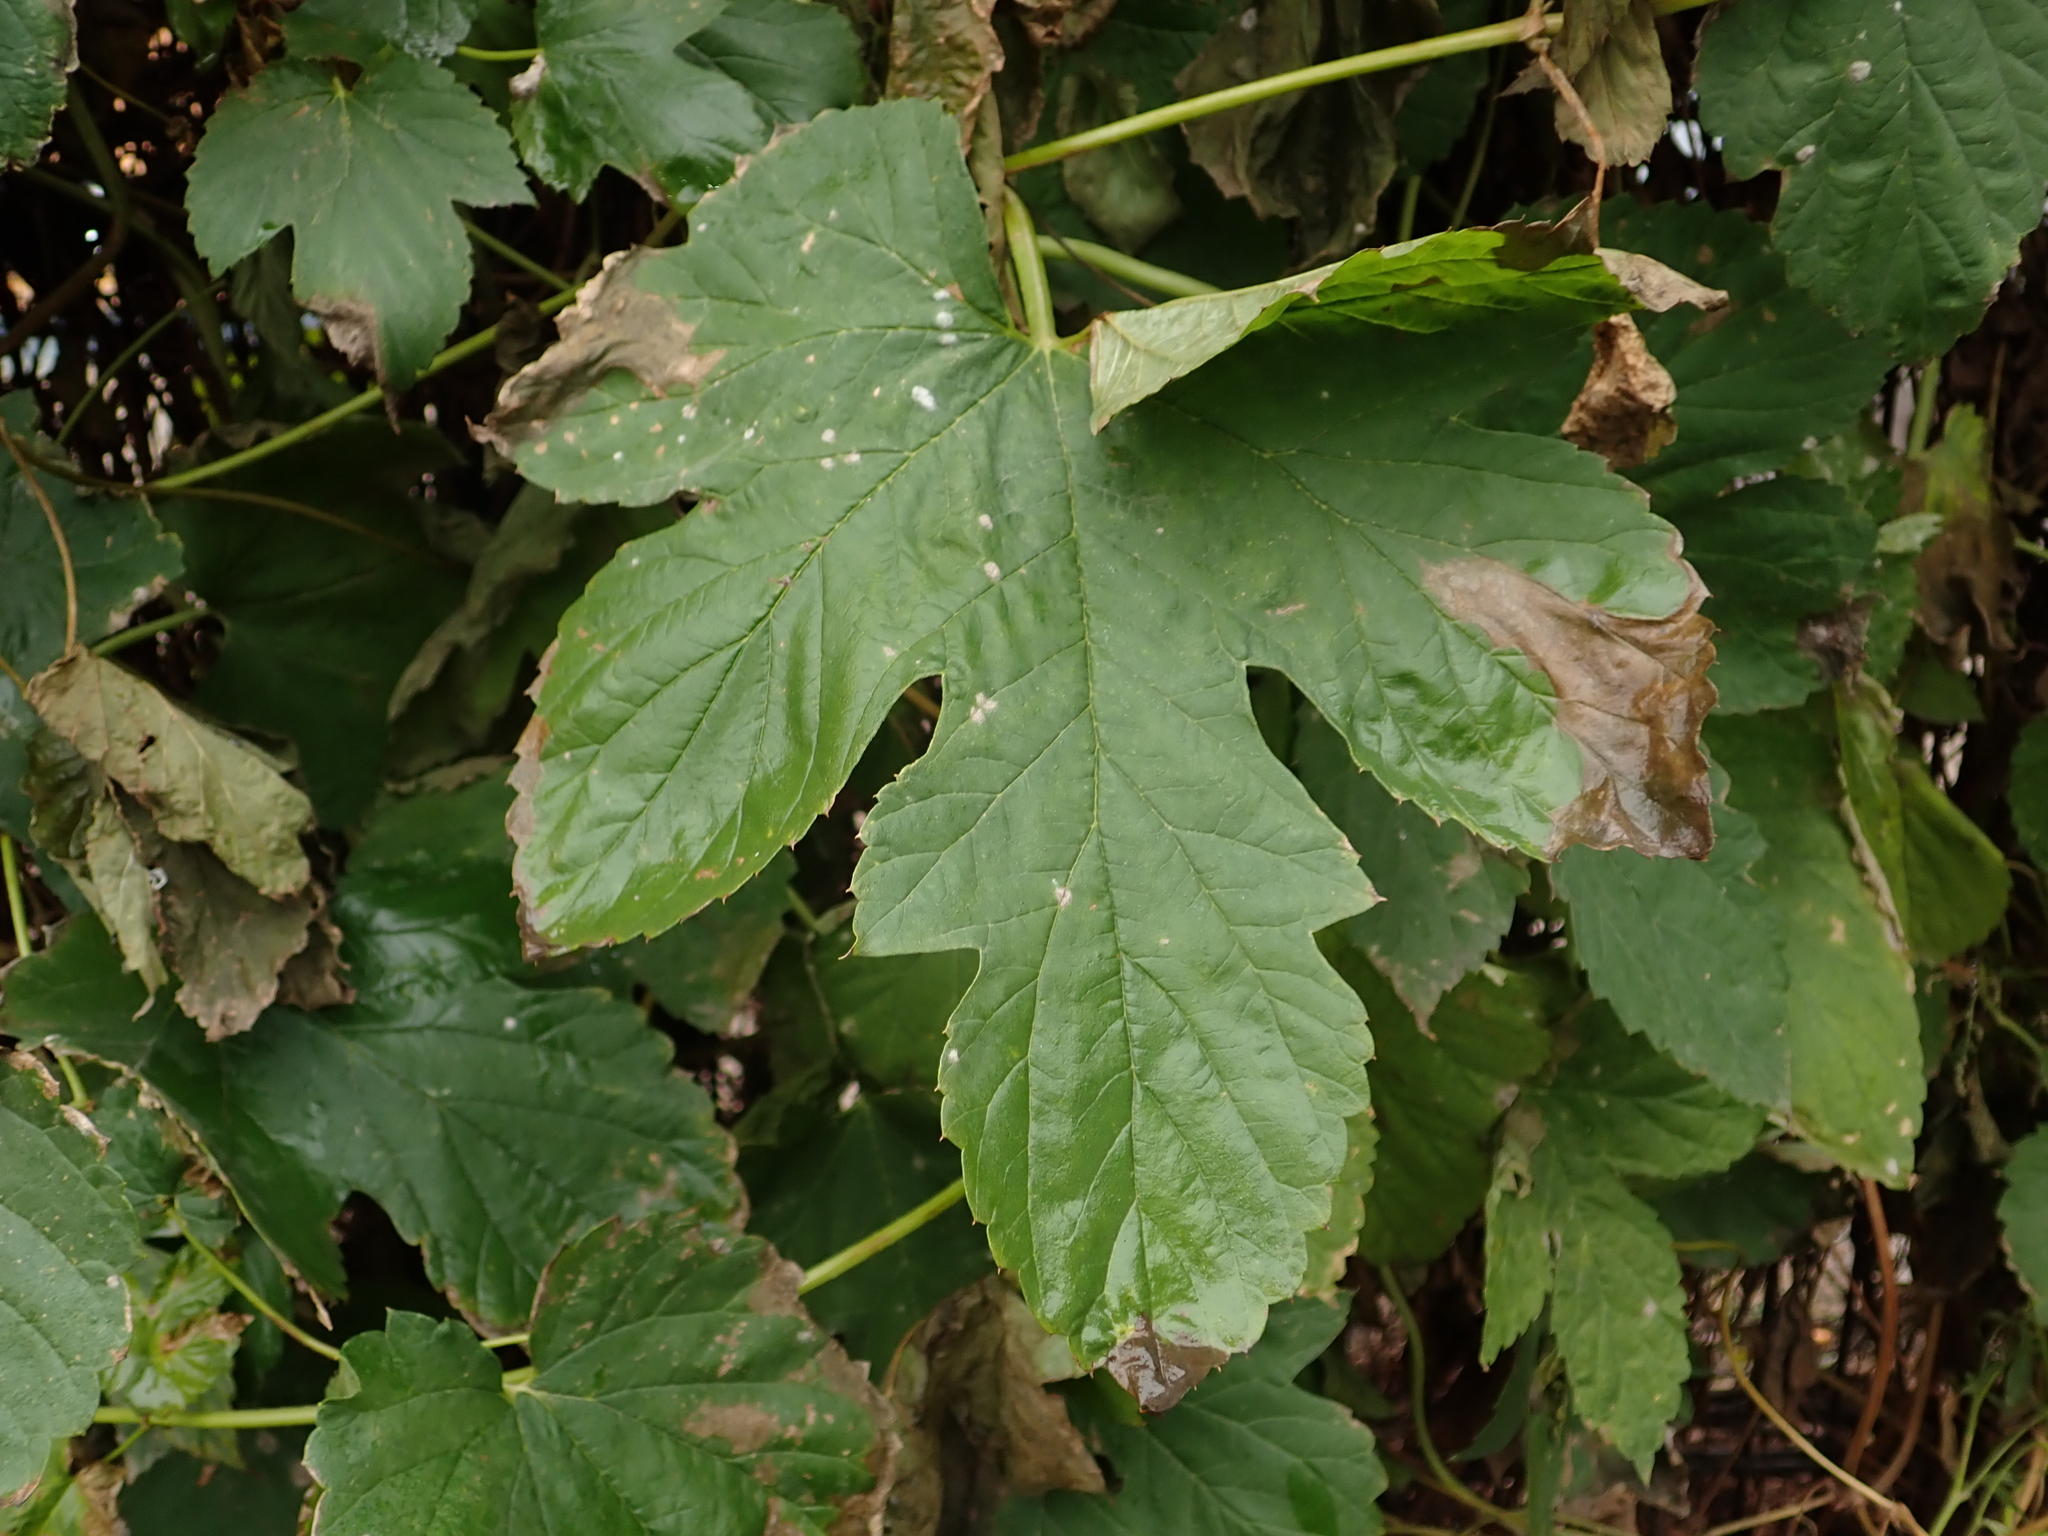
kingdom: Plantae
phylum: Tracheophyta
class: Magnoliopsida
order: Rosales
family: Cannabaceae
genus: Humulus
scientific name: Humulus lupulus
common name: Hop
